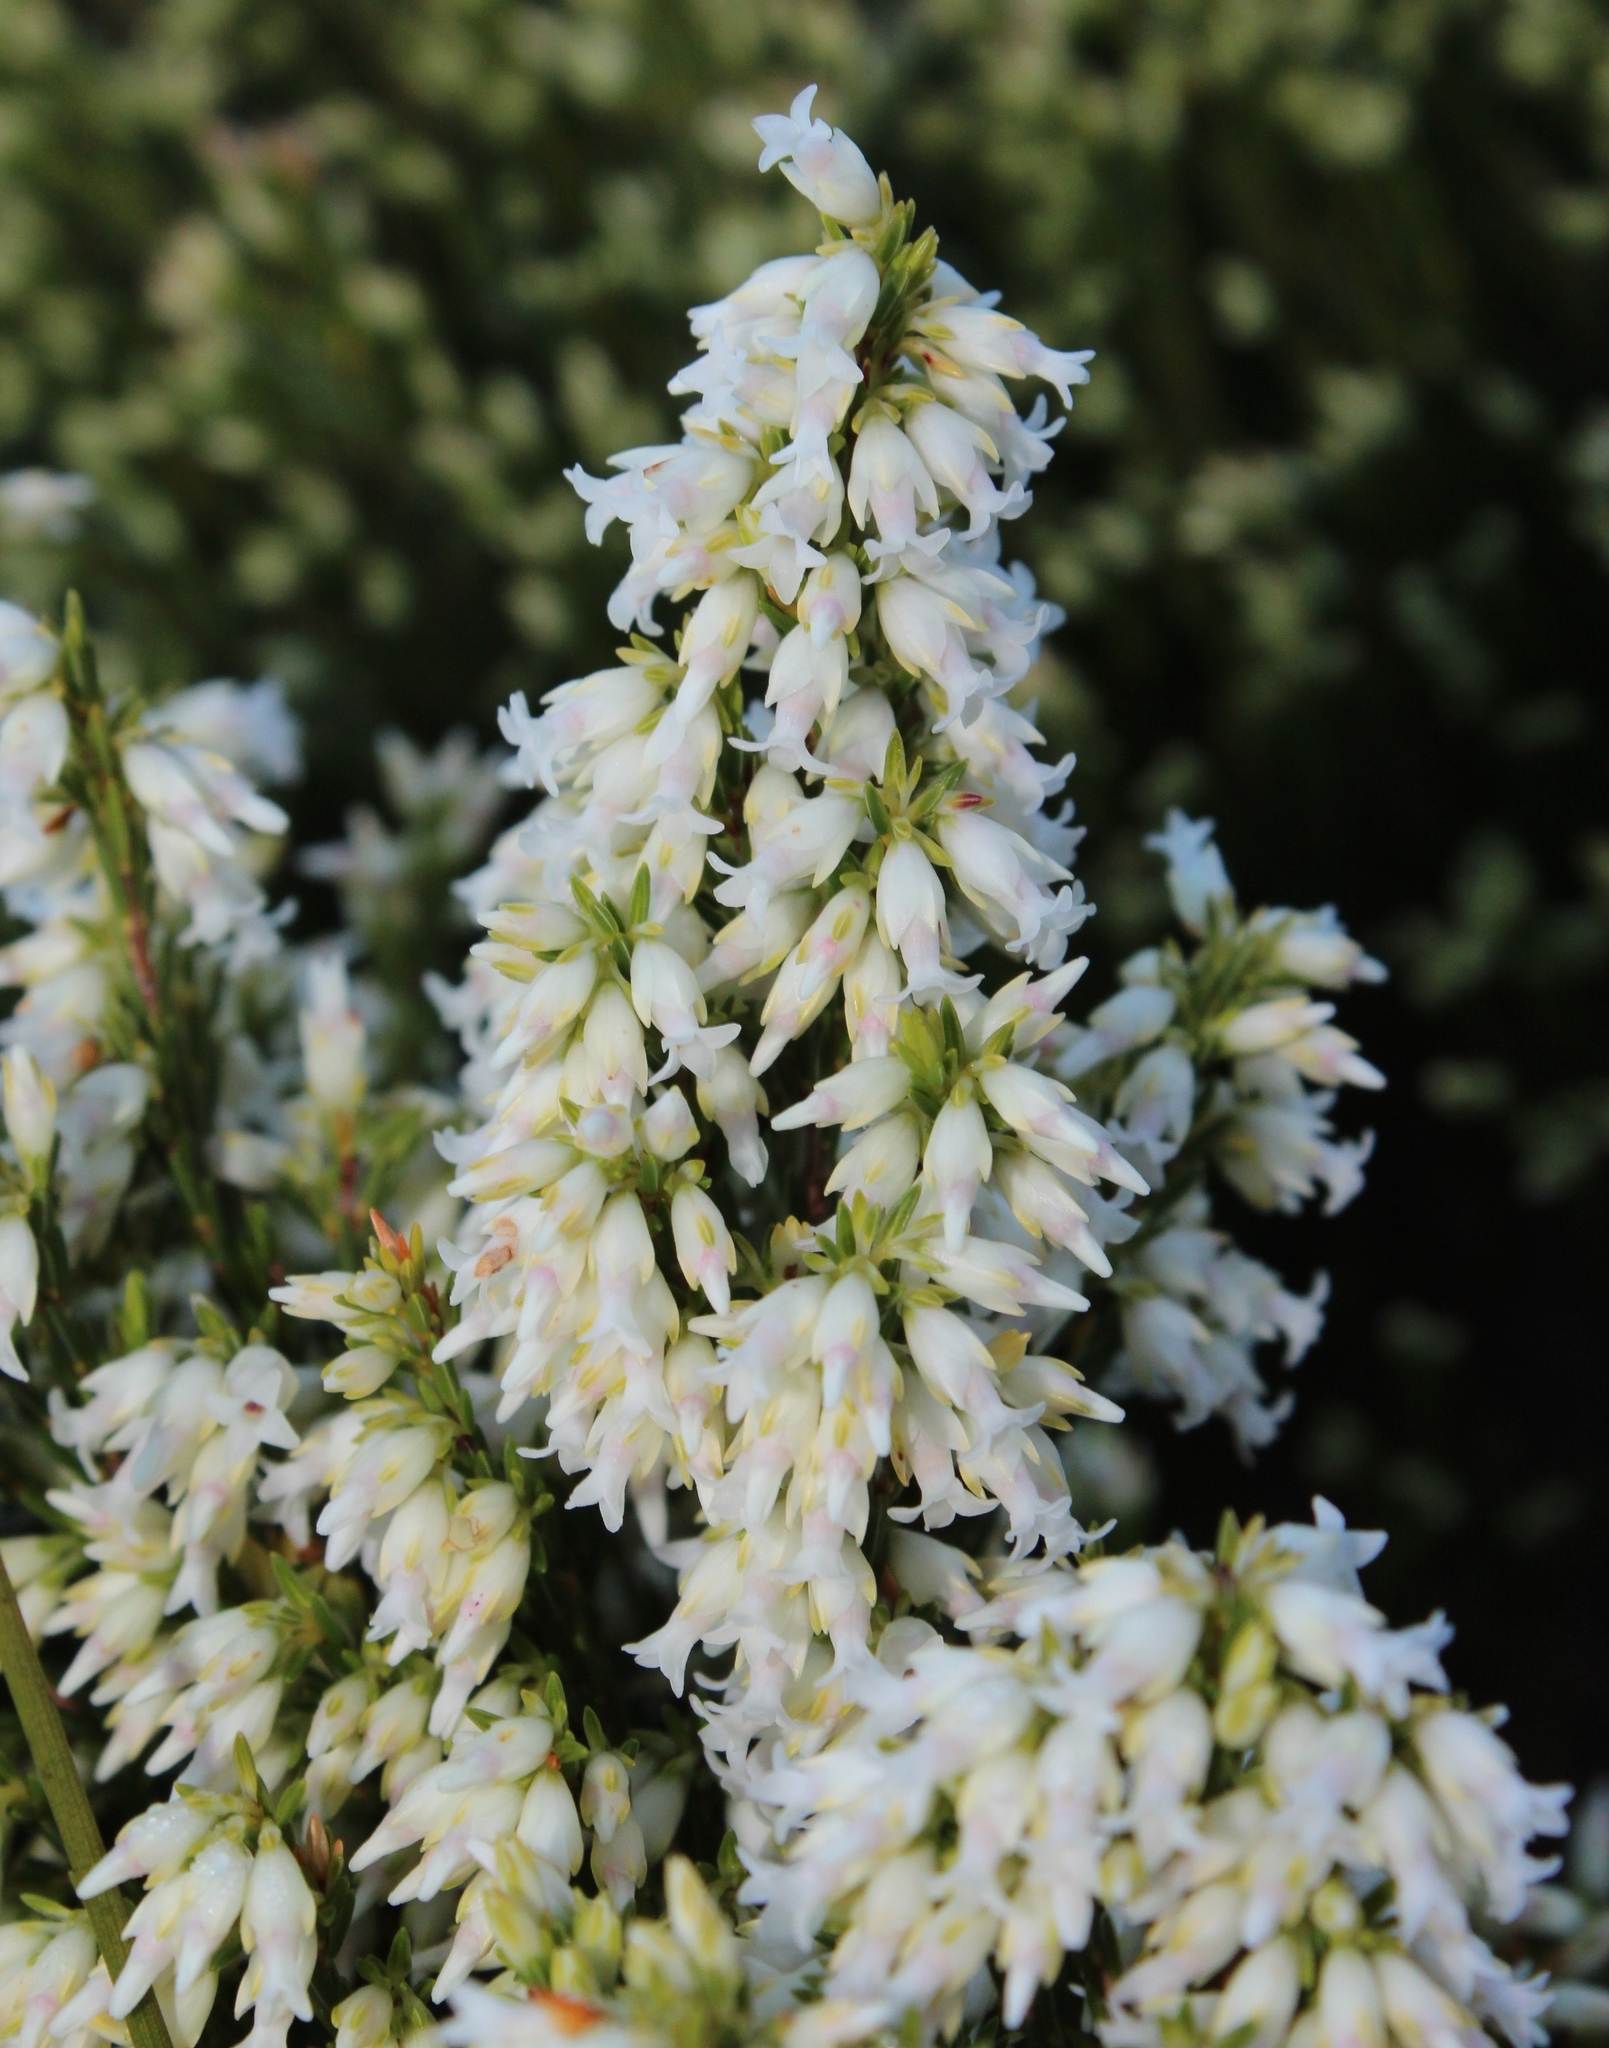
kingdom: Plantae
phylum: Tracheophyta
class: Magnoliopsida
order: Ericales
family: Ericaceae
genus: Erica
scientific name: Erica lutea
